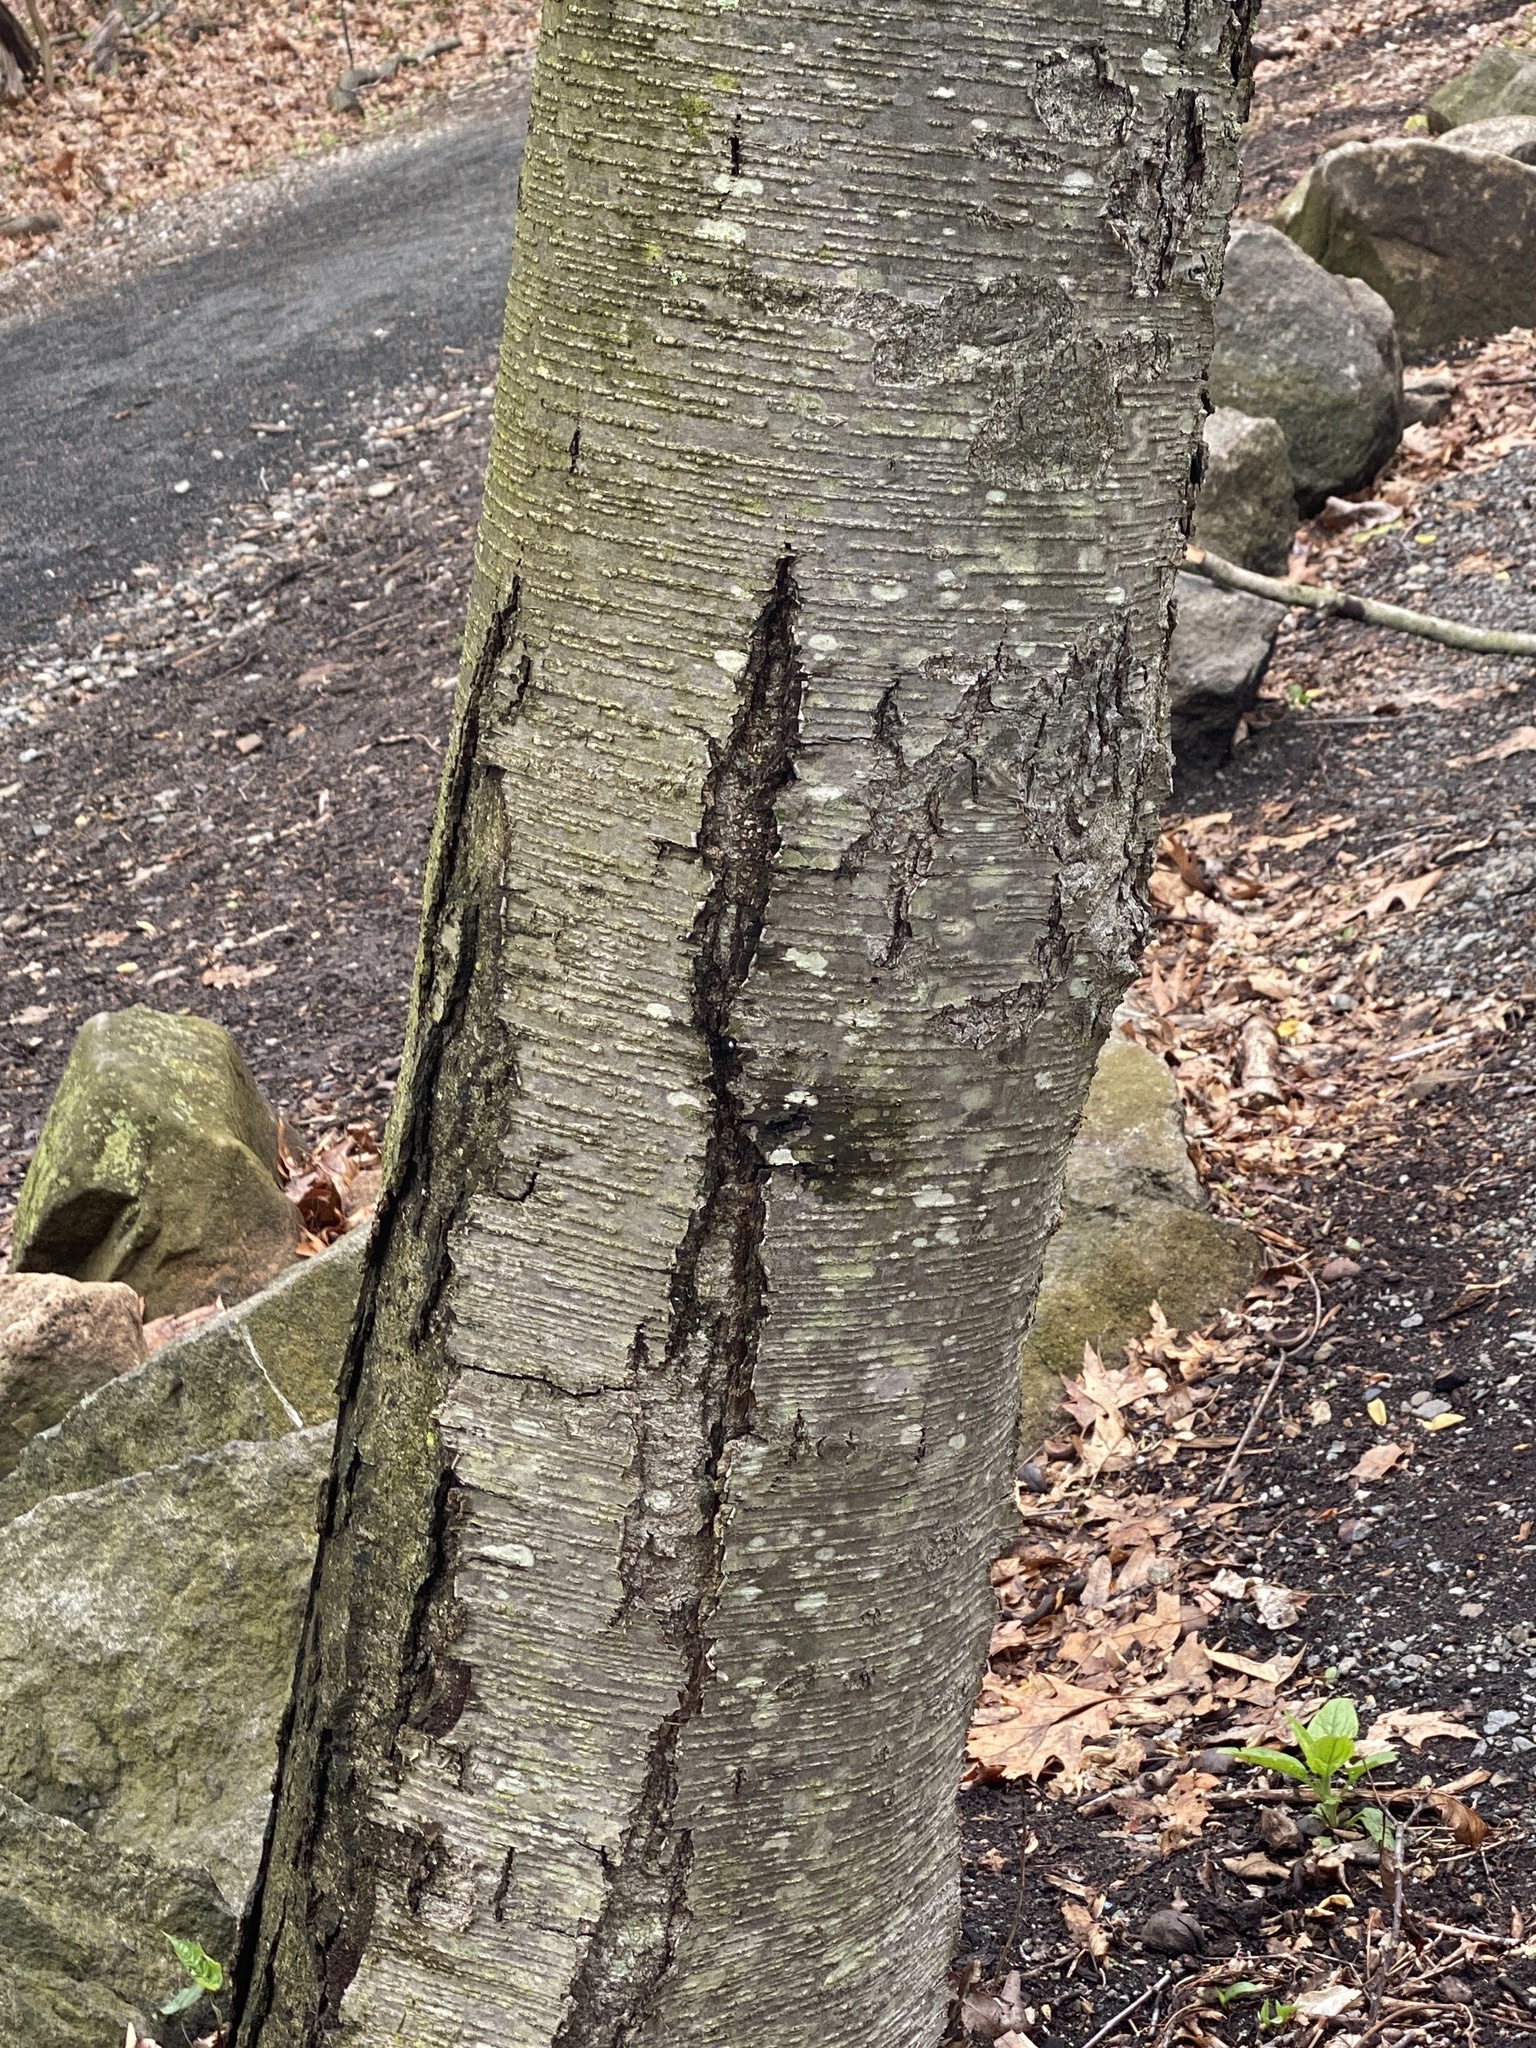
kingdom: Plantae
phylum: Tracheophyta
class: Magnoliopsida
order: Fagales
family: Betulaceae
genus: Betula
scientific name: Betula lenta
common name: Black birch
